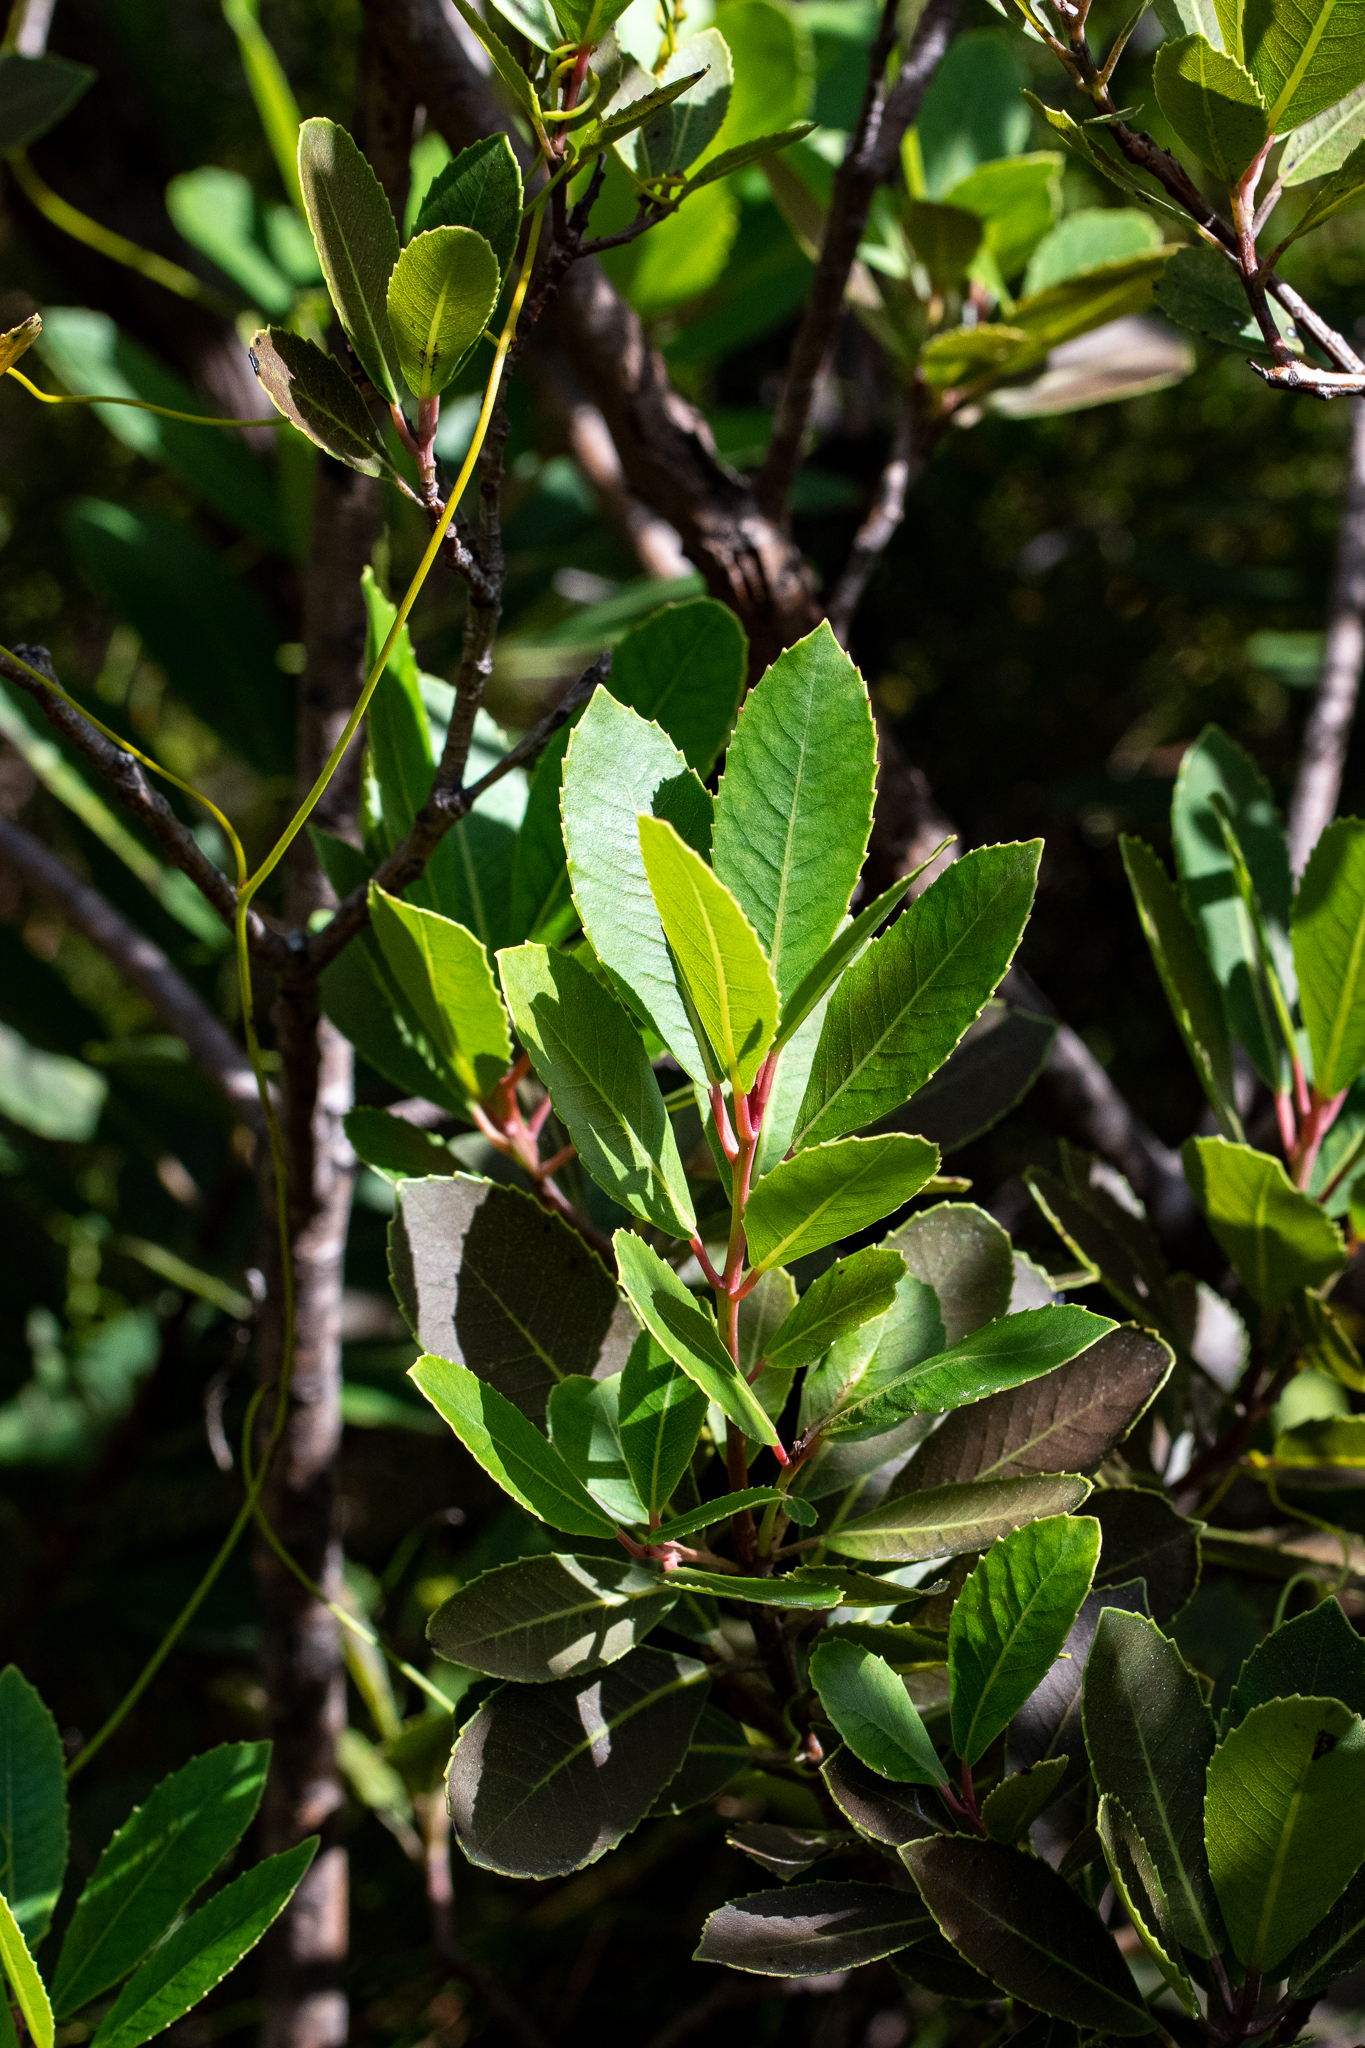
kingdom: Plantae
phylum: Tracheophyta
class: Magnoliopsida
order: Sapindales
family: Anacardiaceae
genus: Laurophyllus
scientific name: Laurophyllus capensis
